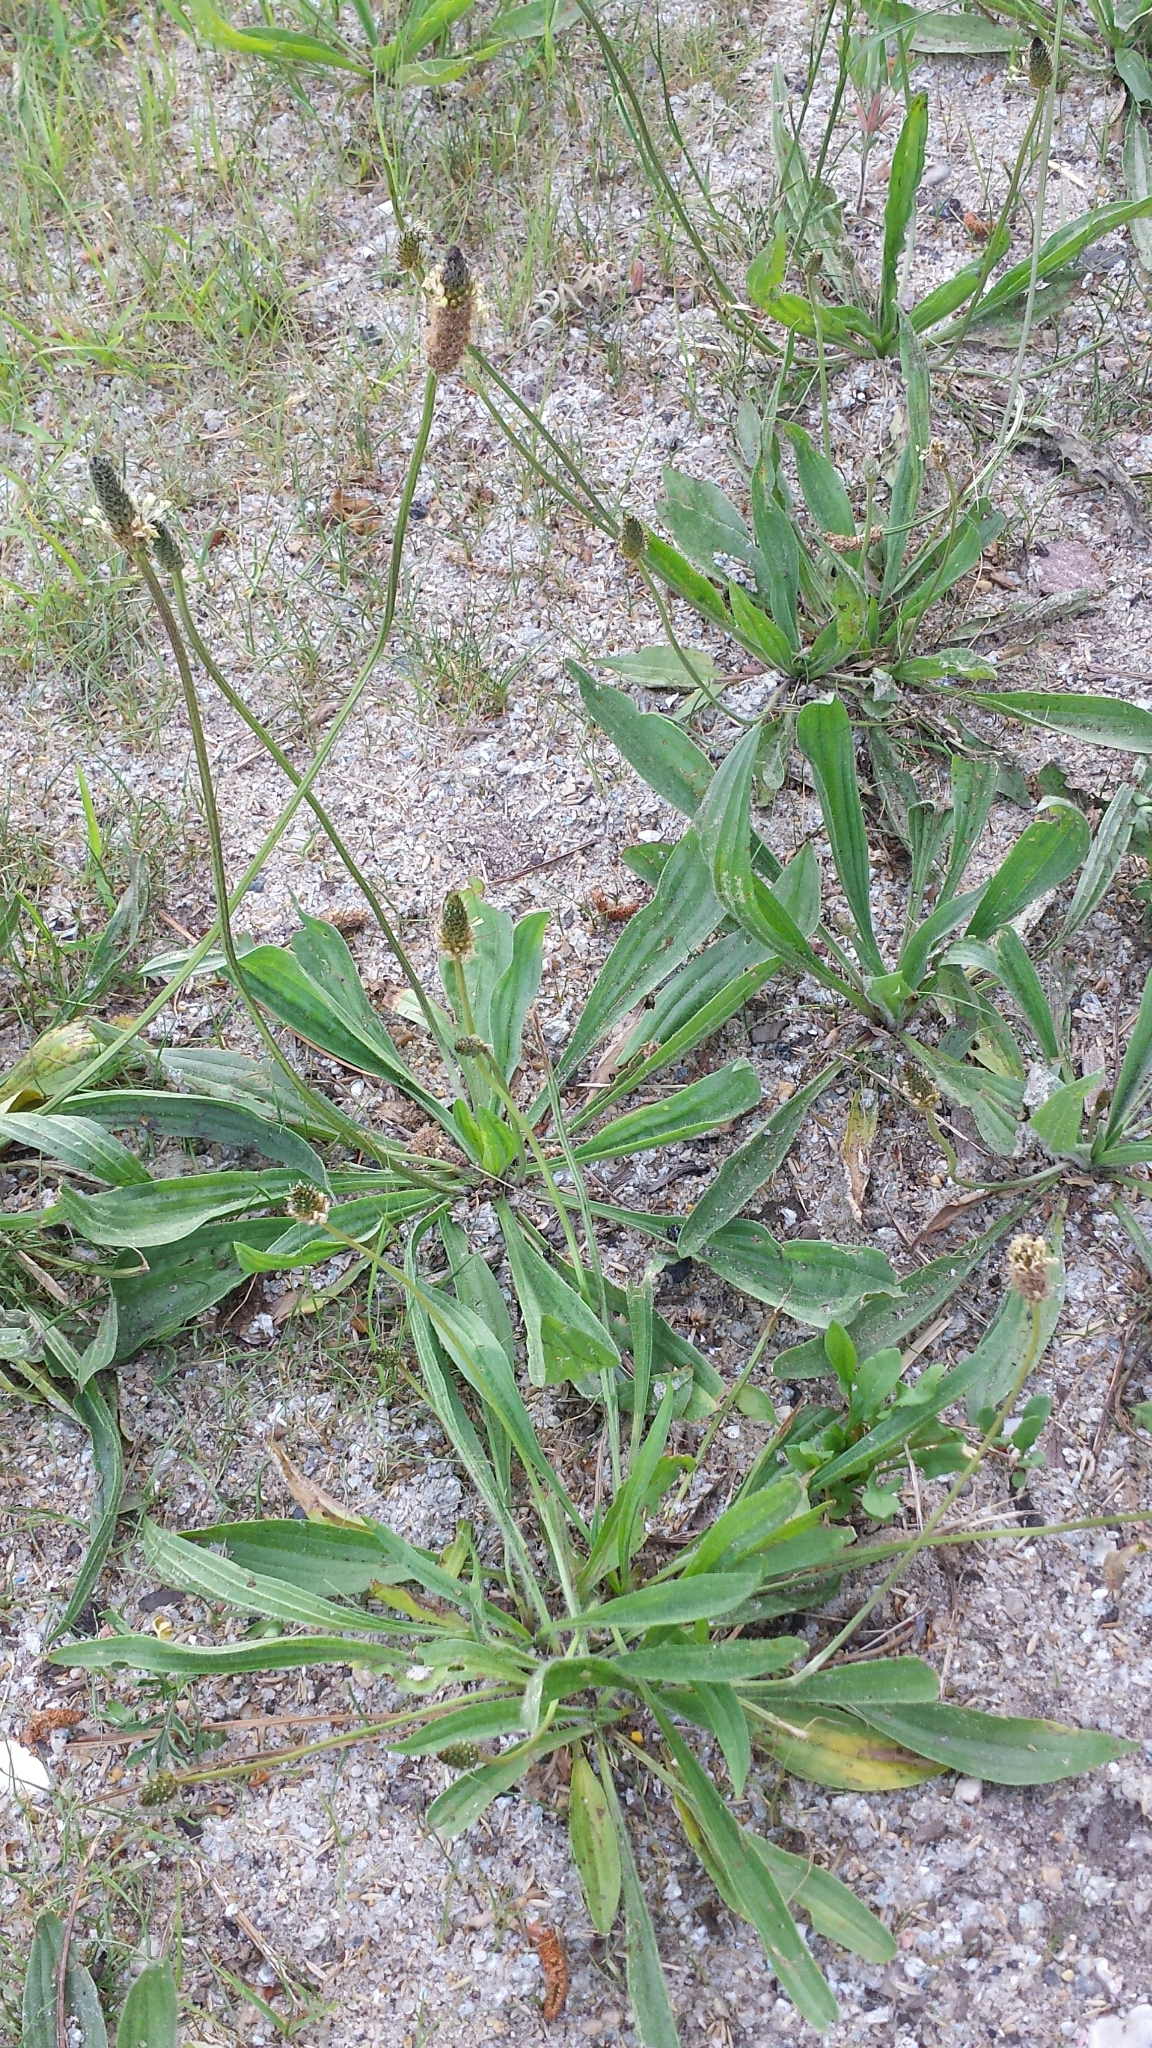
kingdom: Plantae
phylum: Tracheophyta
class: Magnoliopsida
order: Lamiales
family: Plantaginaceae
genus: Plantago
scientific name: Plantago lanceolata
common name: Ribwort plantain
